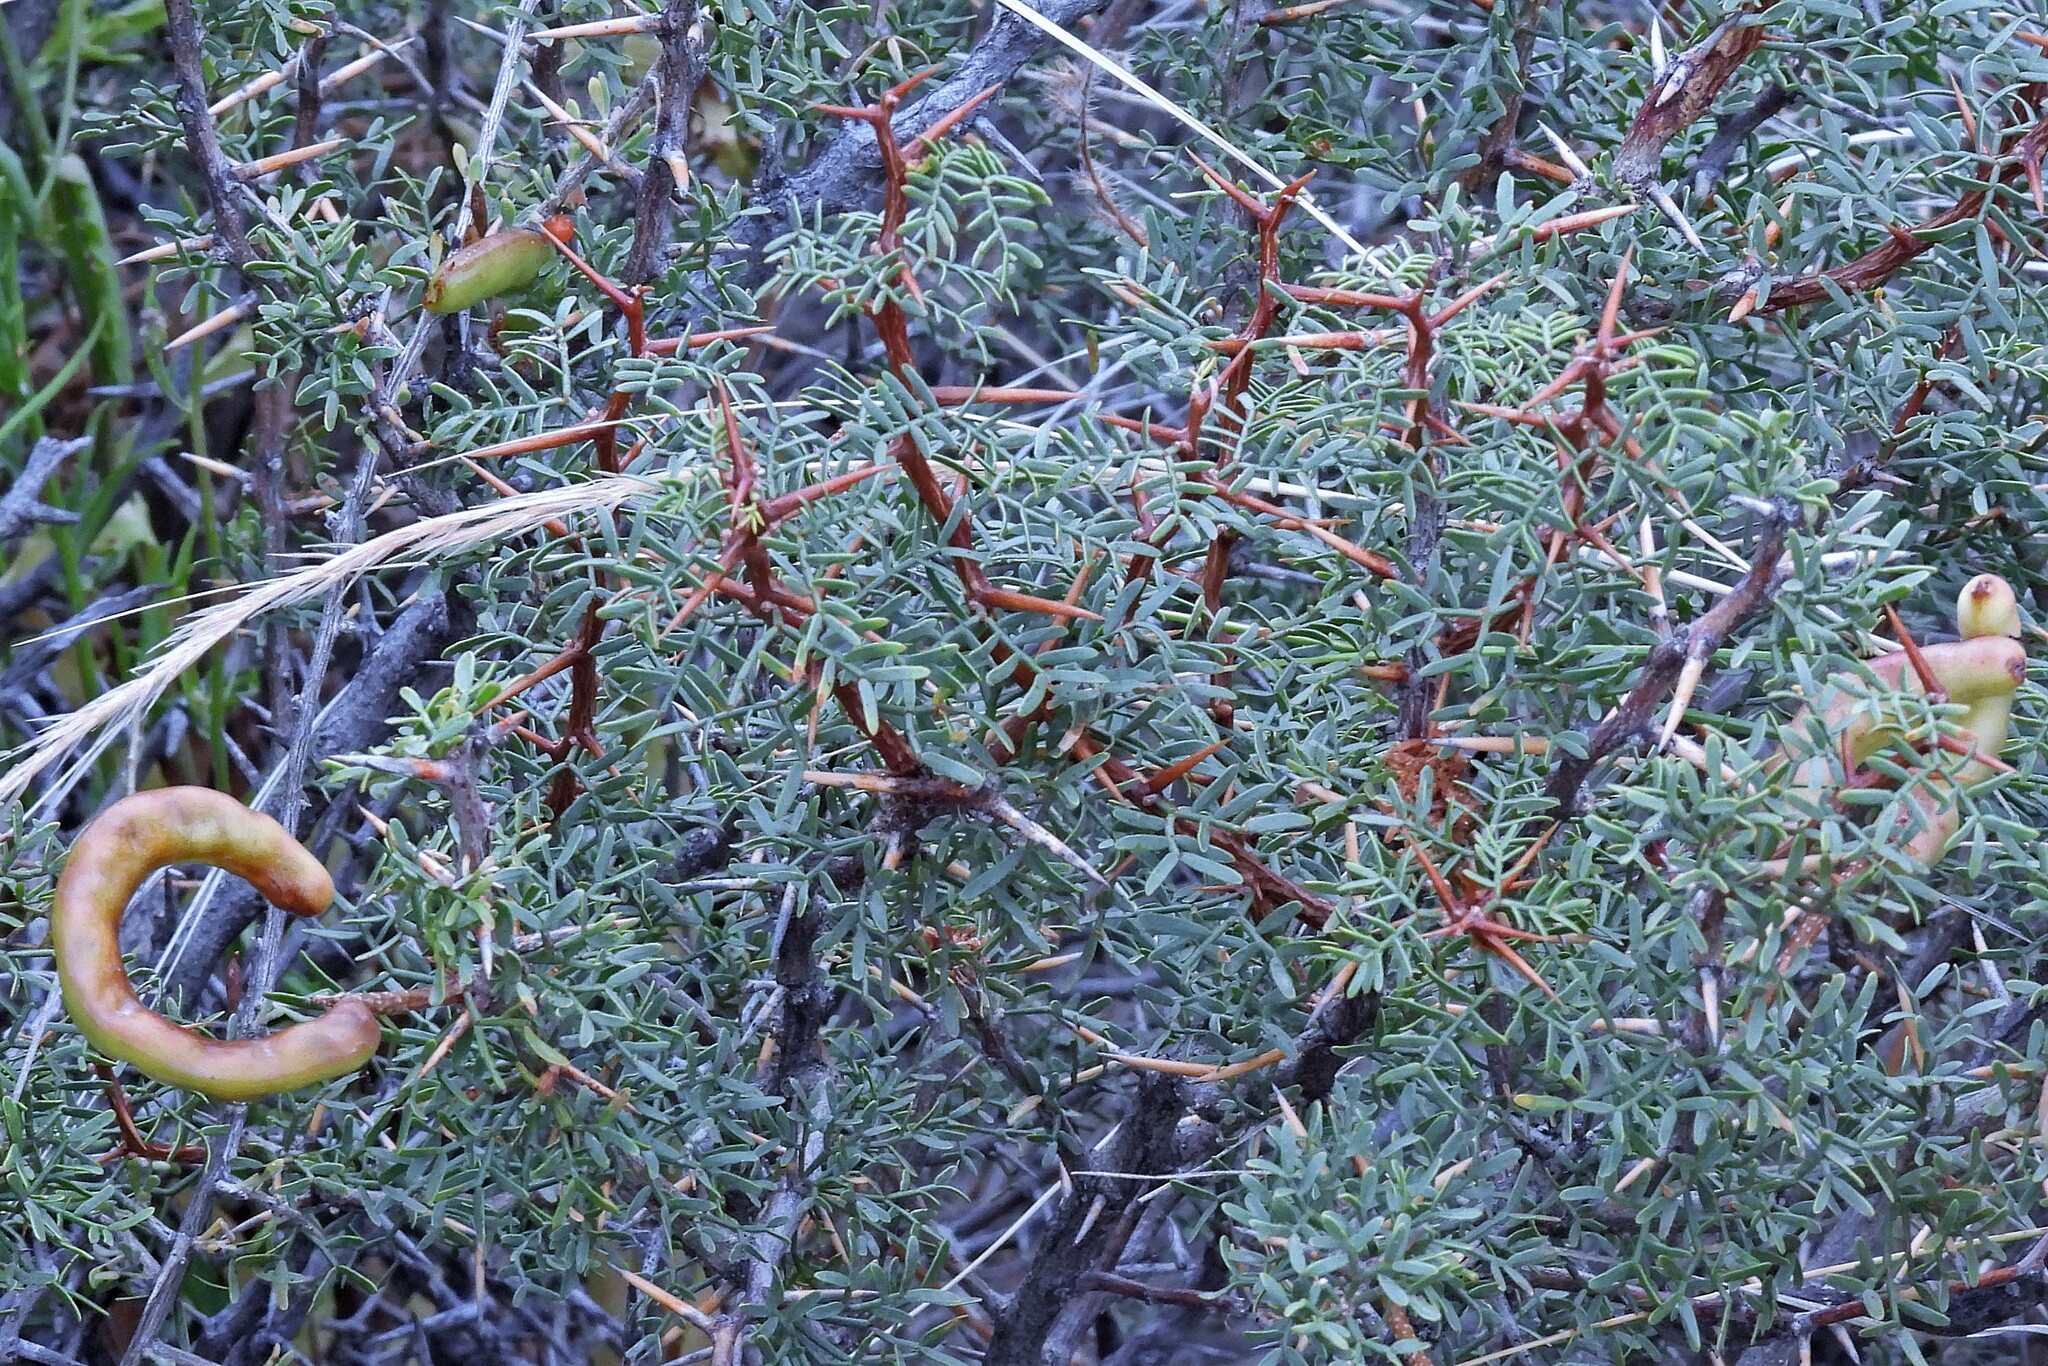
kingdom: Plantae
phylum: Tracheophyta
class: Magnoliopsida
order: Fabales
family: Fabaceae
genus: Prosopis
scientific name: Prosopis alpataco
